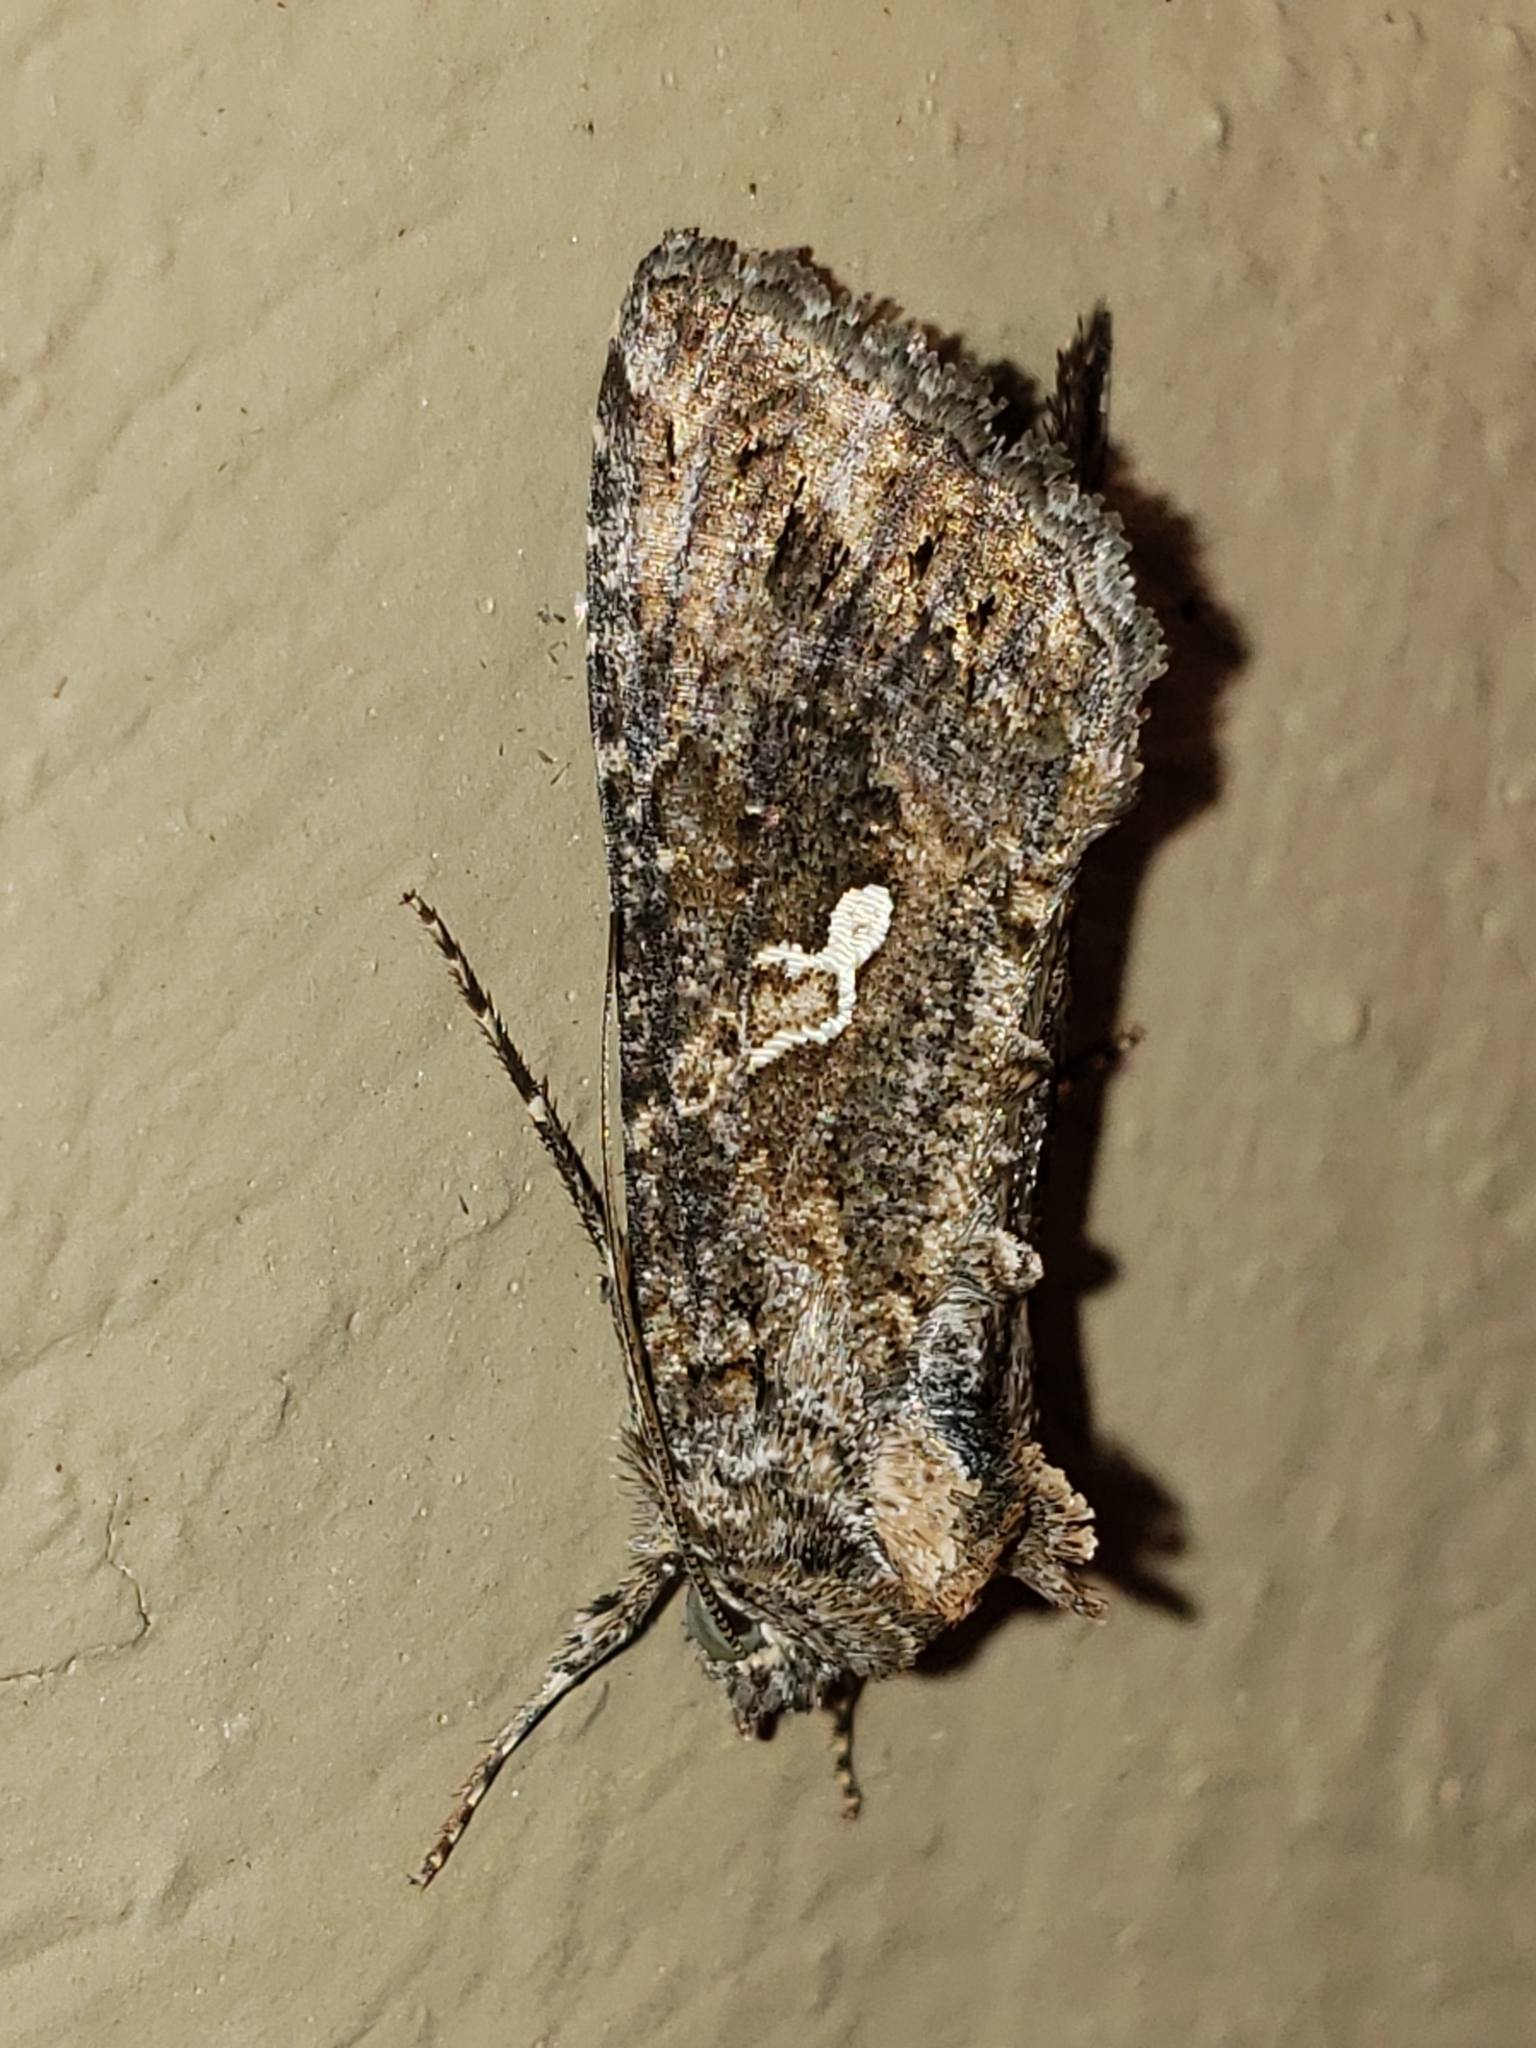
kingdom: Animalia
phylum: Arthropoda
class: Insecta
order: Lepidoptera
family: Noctuidae
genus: Trichoplusia
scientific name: Trichoplusia ni
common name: Ni moth
